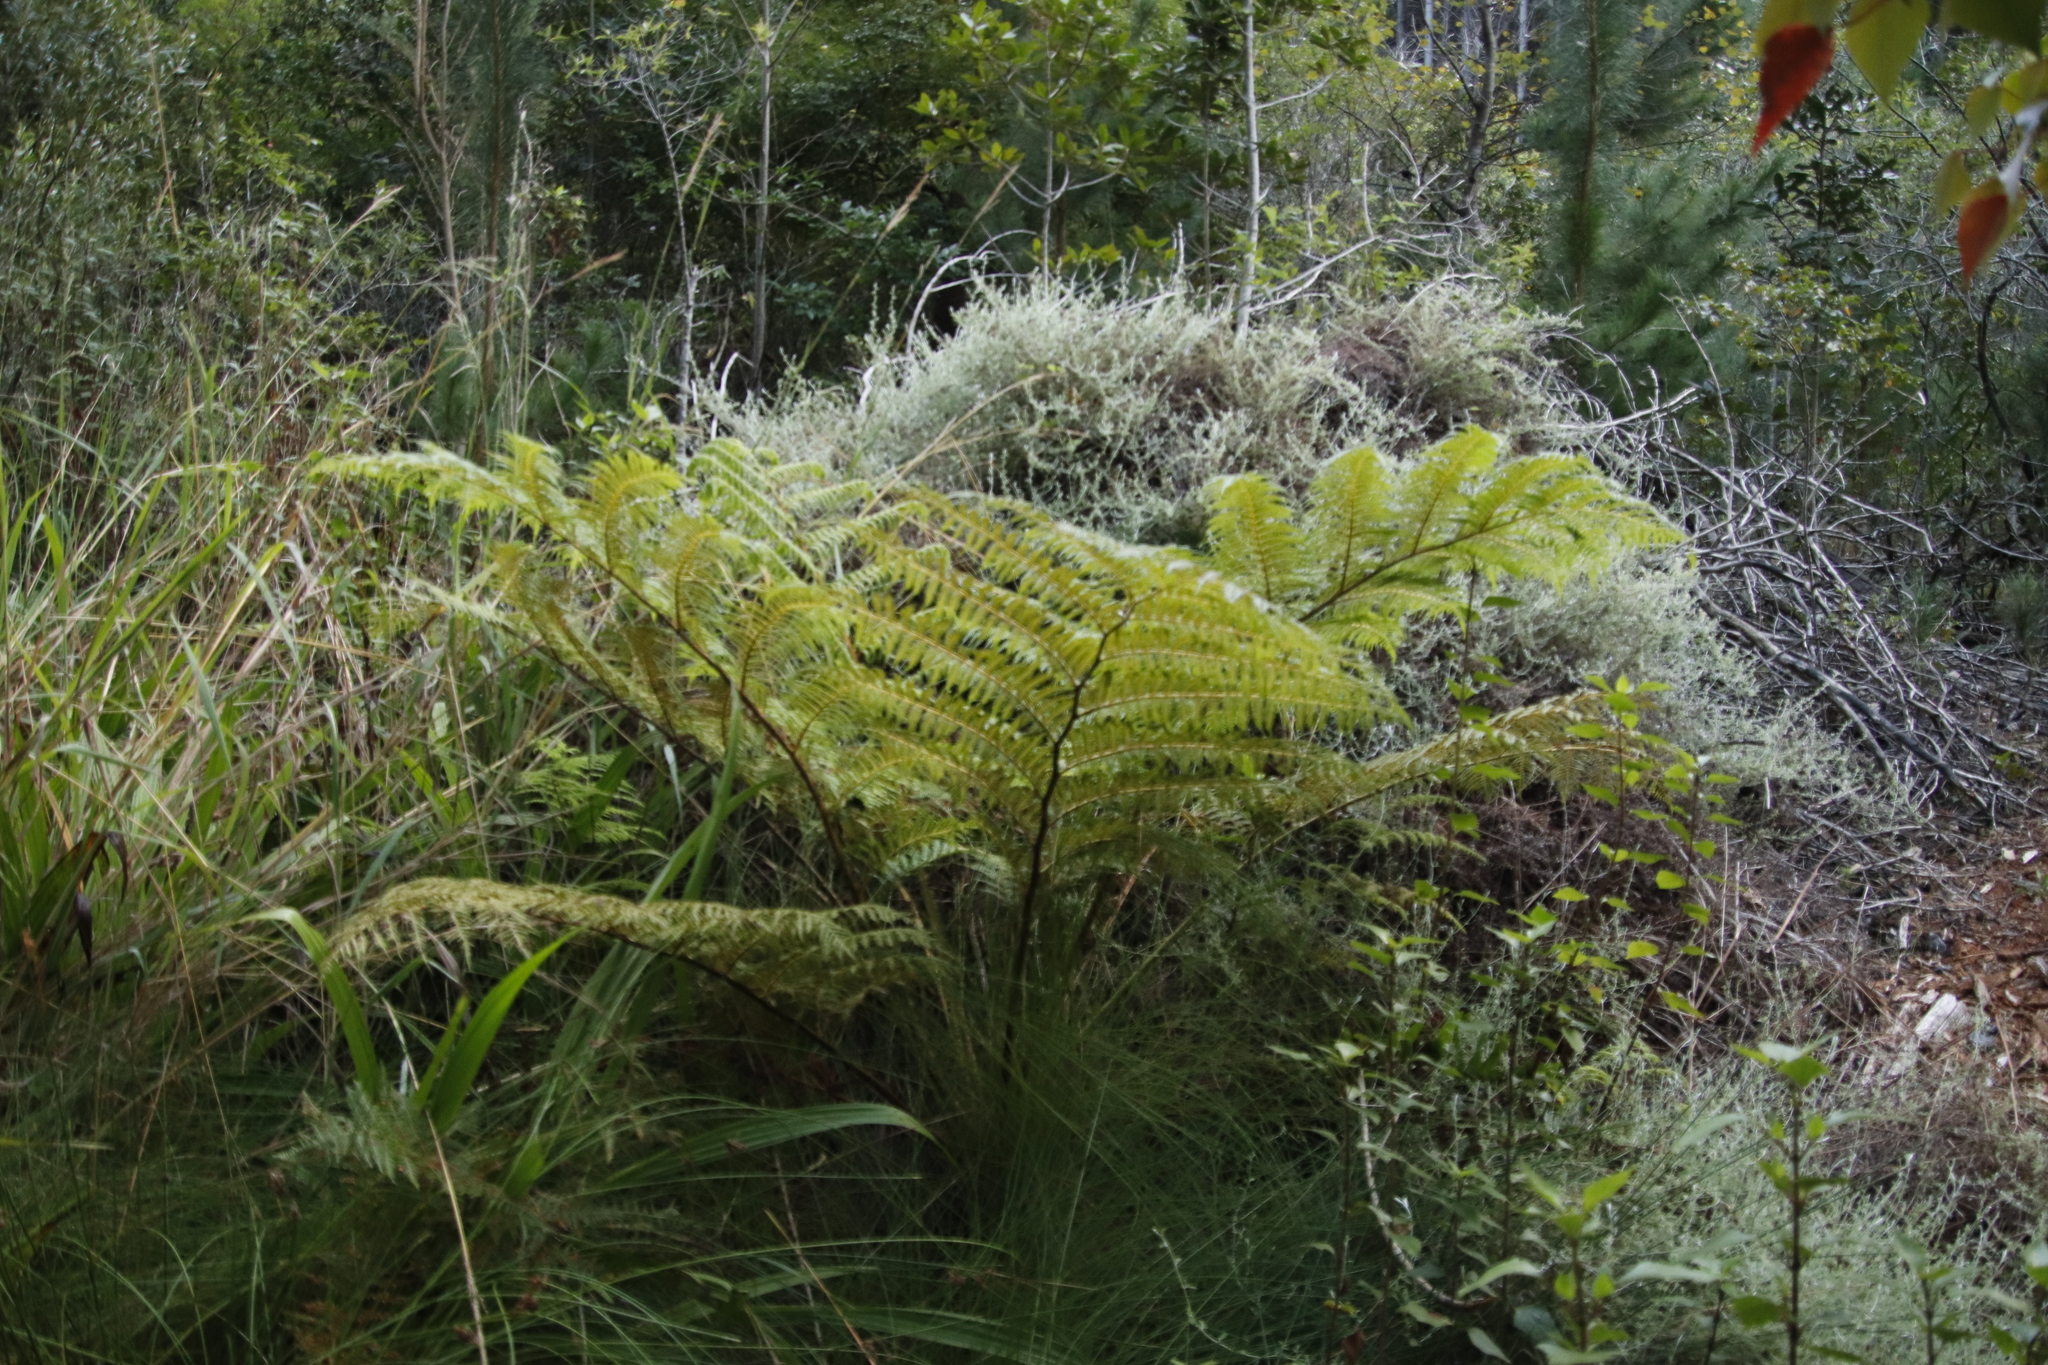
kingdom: Plantae
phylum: Tracheophyta
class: Polypodiopsida
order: Cyatheales
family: Cyatheaceae
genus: Sphaeropteris
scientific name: Sphaeropteris cooperi
